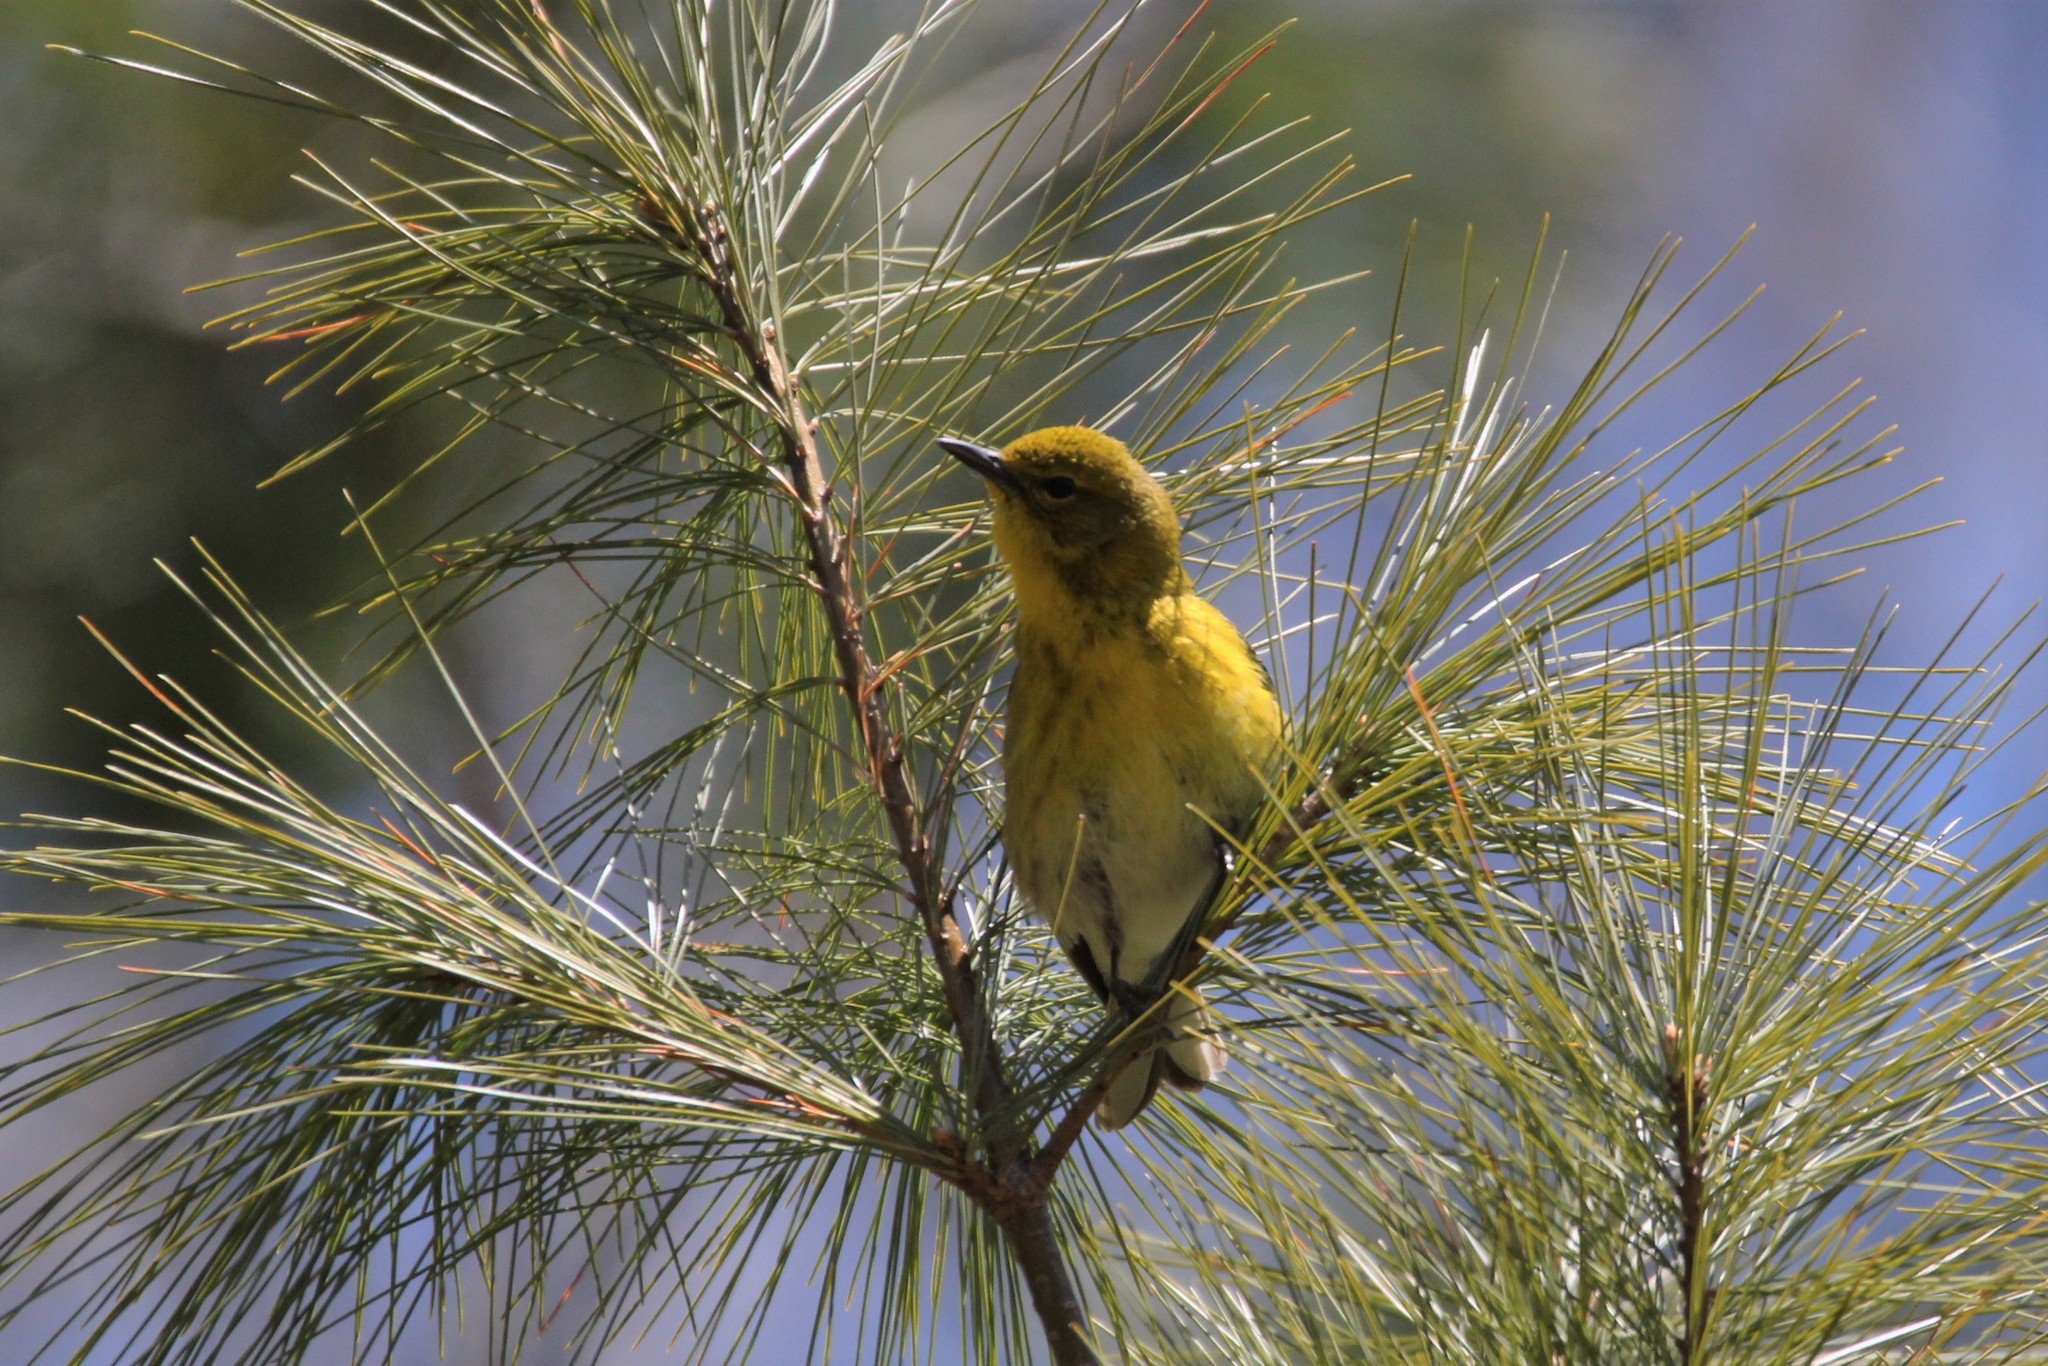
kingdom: Animalia
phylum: Chordata
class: Aves
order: Passeriformes
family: Parulidae
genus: Setophaga
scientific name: Setophaga pinus
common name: Pine warbler
